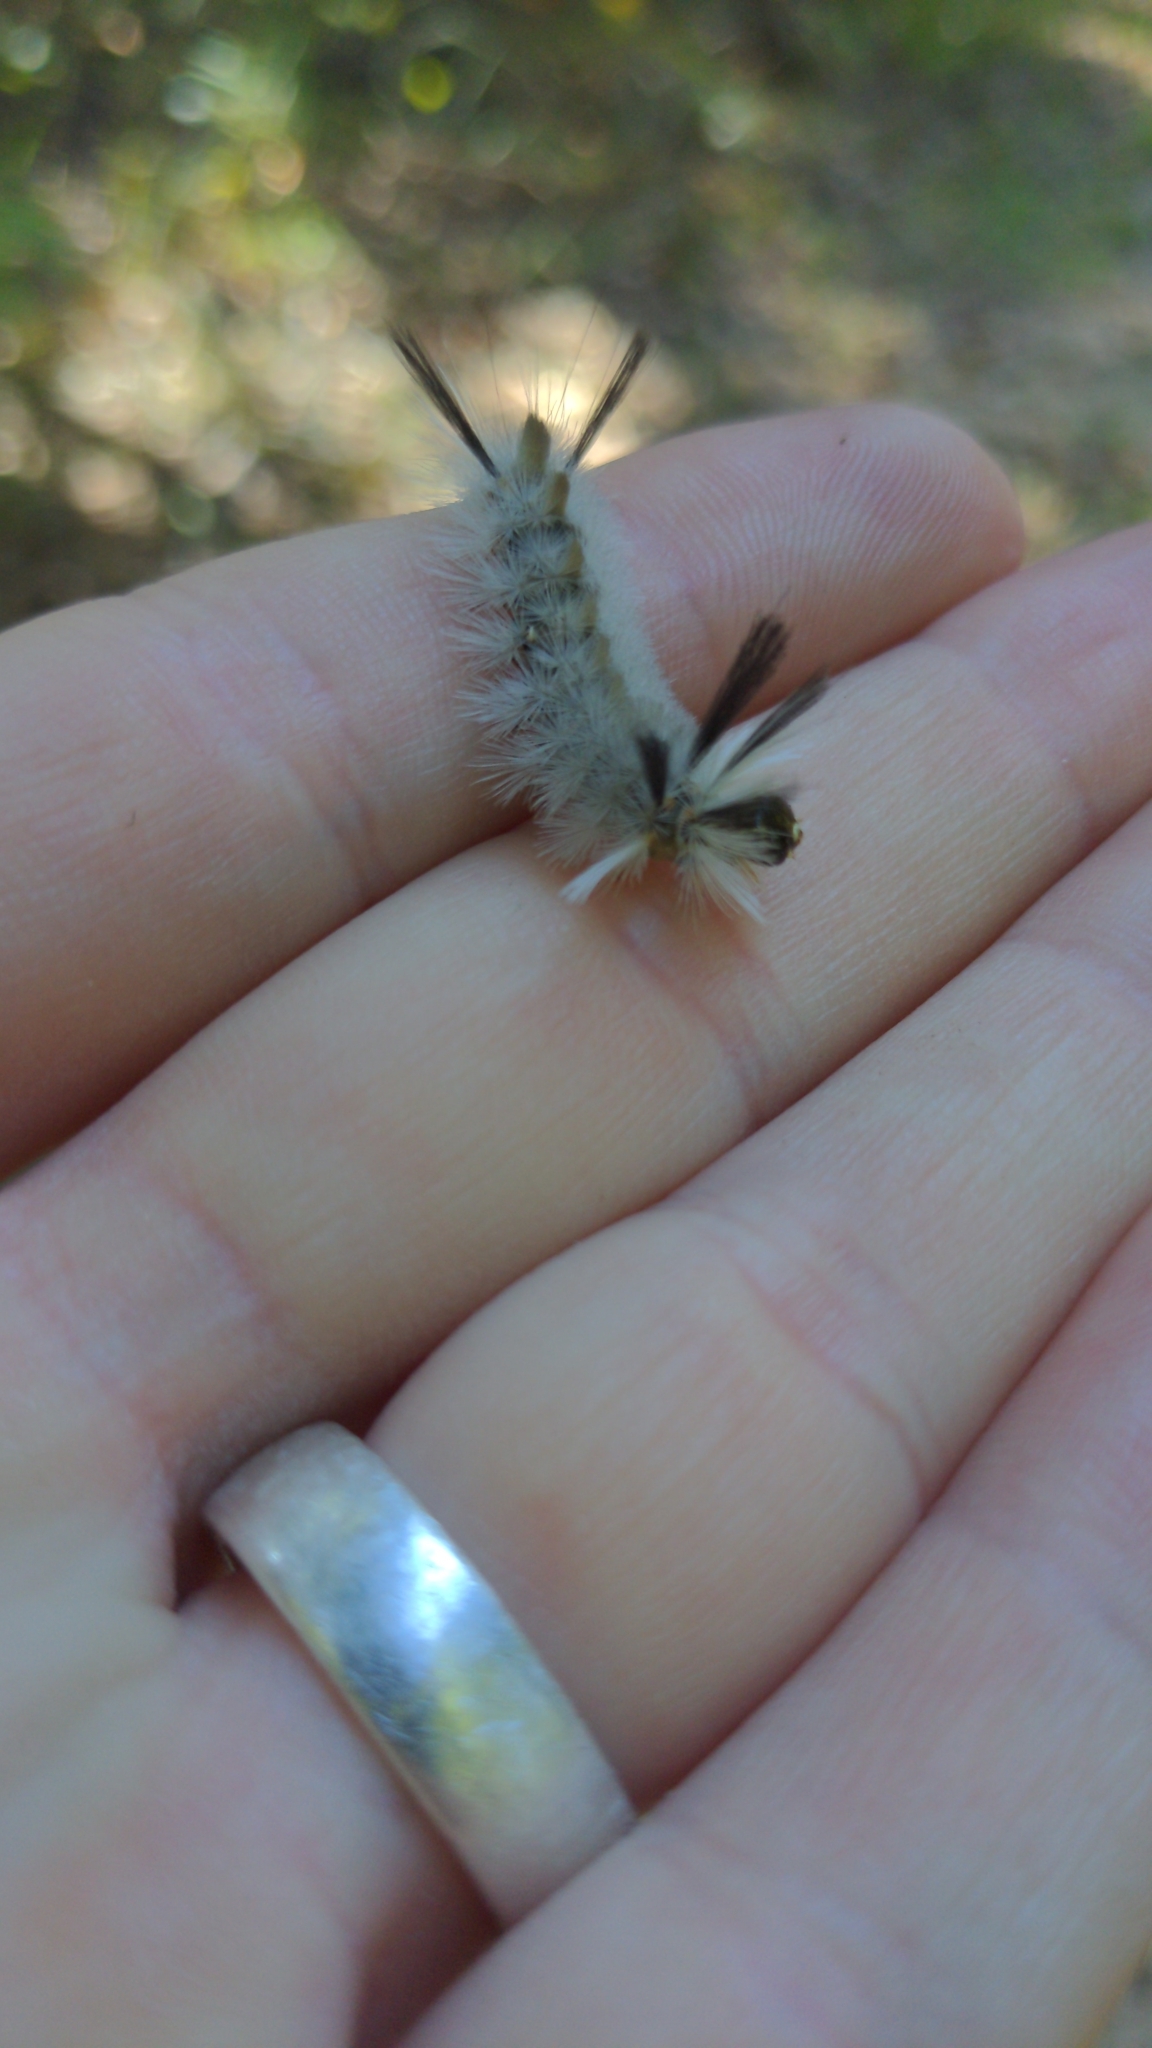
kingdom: Animalia
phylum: Arthropoda
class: Insecta
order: Lepidoptera
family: Erebidae
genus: Halysidota
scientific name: Halysidota tessellaris
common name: Banded tussock moth
